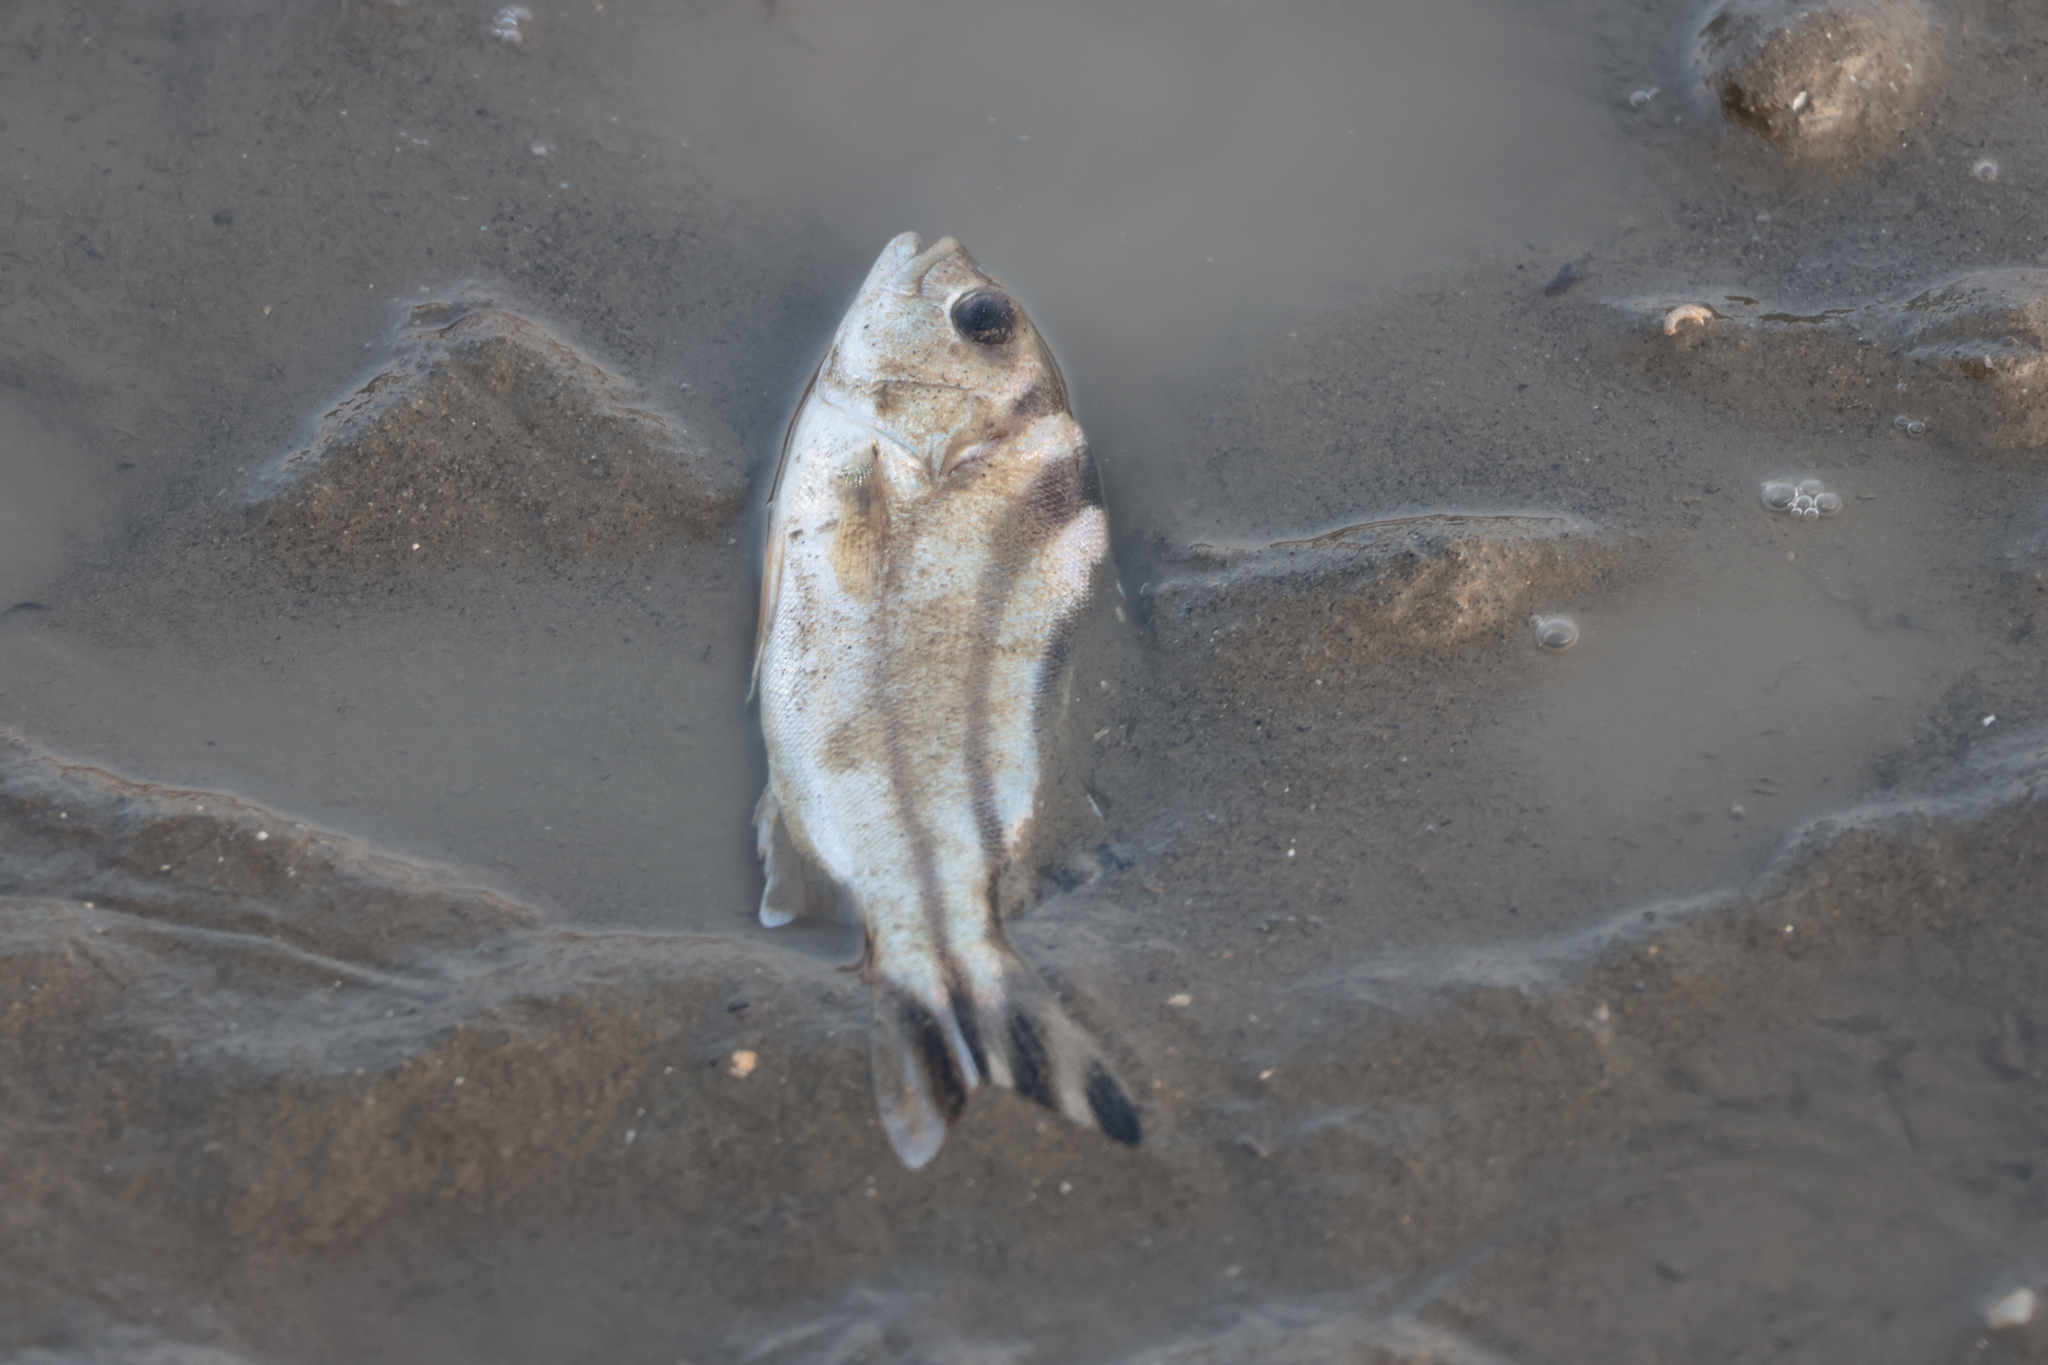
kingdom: Animalia
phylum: Chordata
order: Perciformes
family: Terapontidae
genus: Terapon
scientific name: Terapon jarbua
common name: Jarbua terapon
